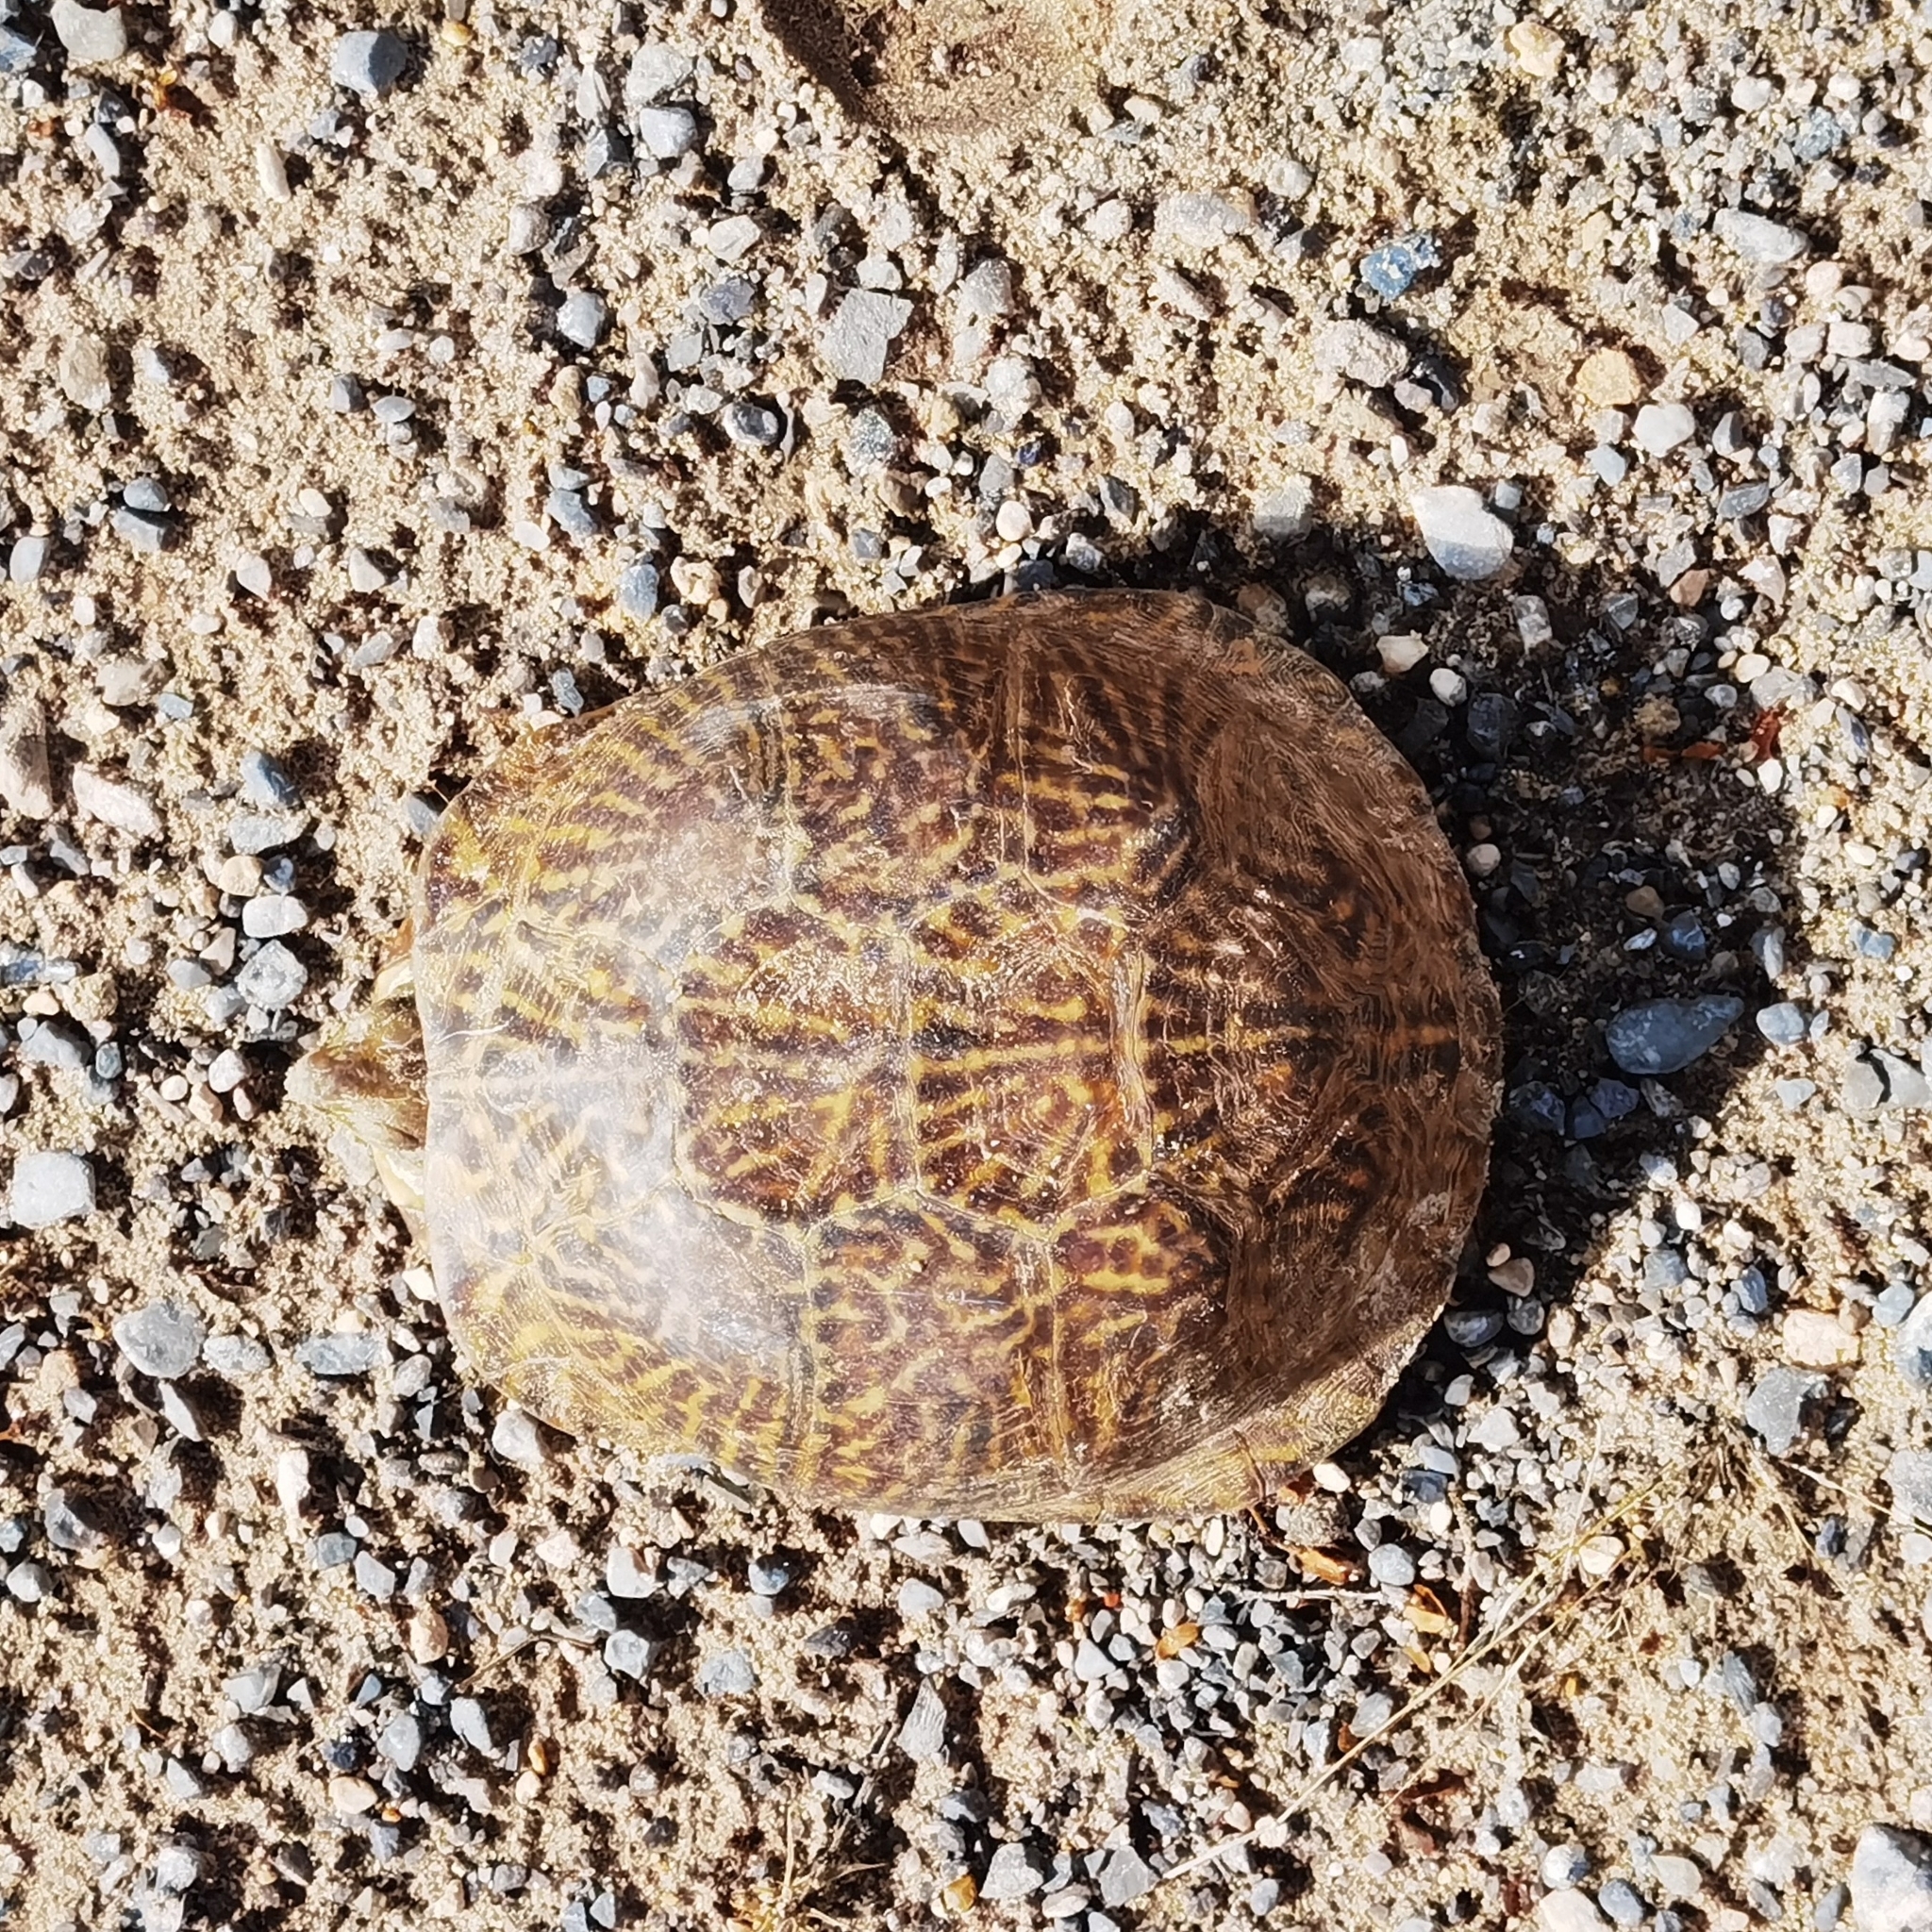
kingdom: Animalia
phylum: Chordata
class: Testudines
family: Emydidae
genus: Terrapene
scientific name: Terrapene ornata
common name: Western box turtle
